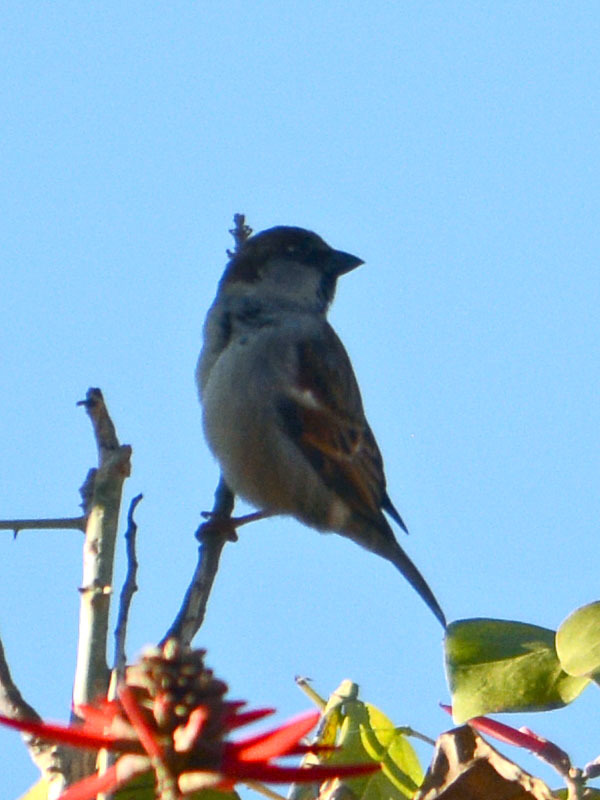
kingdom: Animalia
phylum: Chordata
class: Aves
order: Passeriformes
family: Passeridae
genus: Passer
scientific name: Passer domesticus
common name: House sparrow
